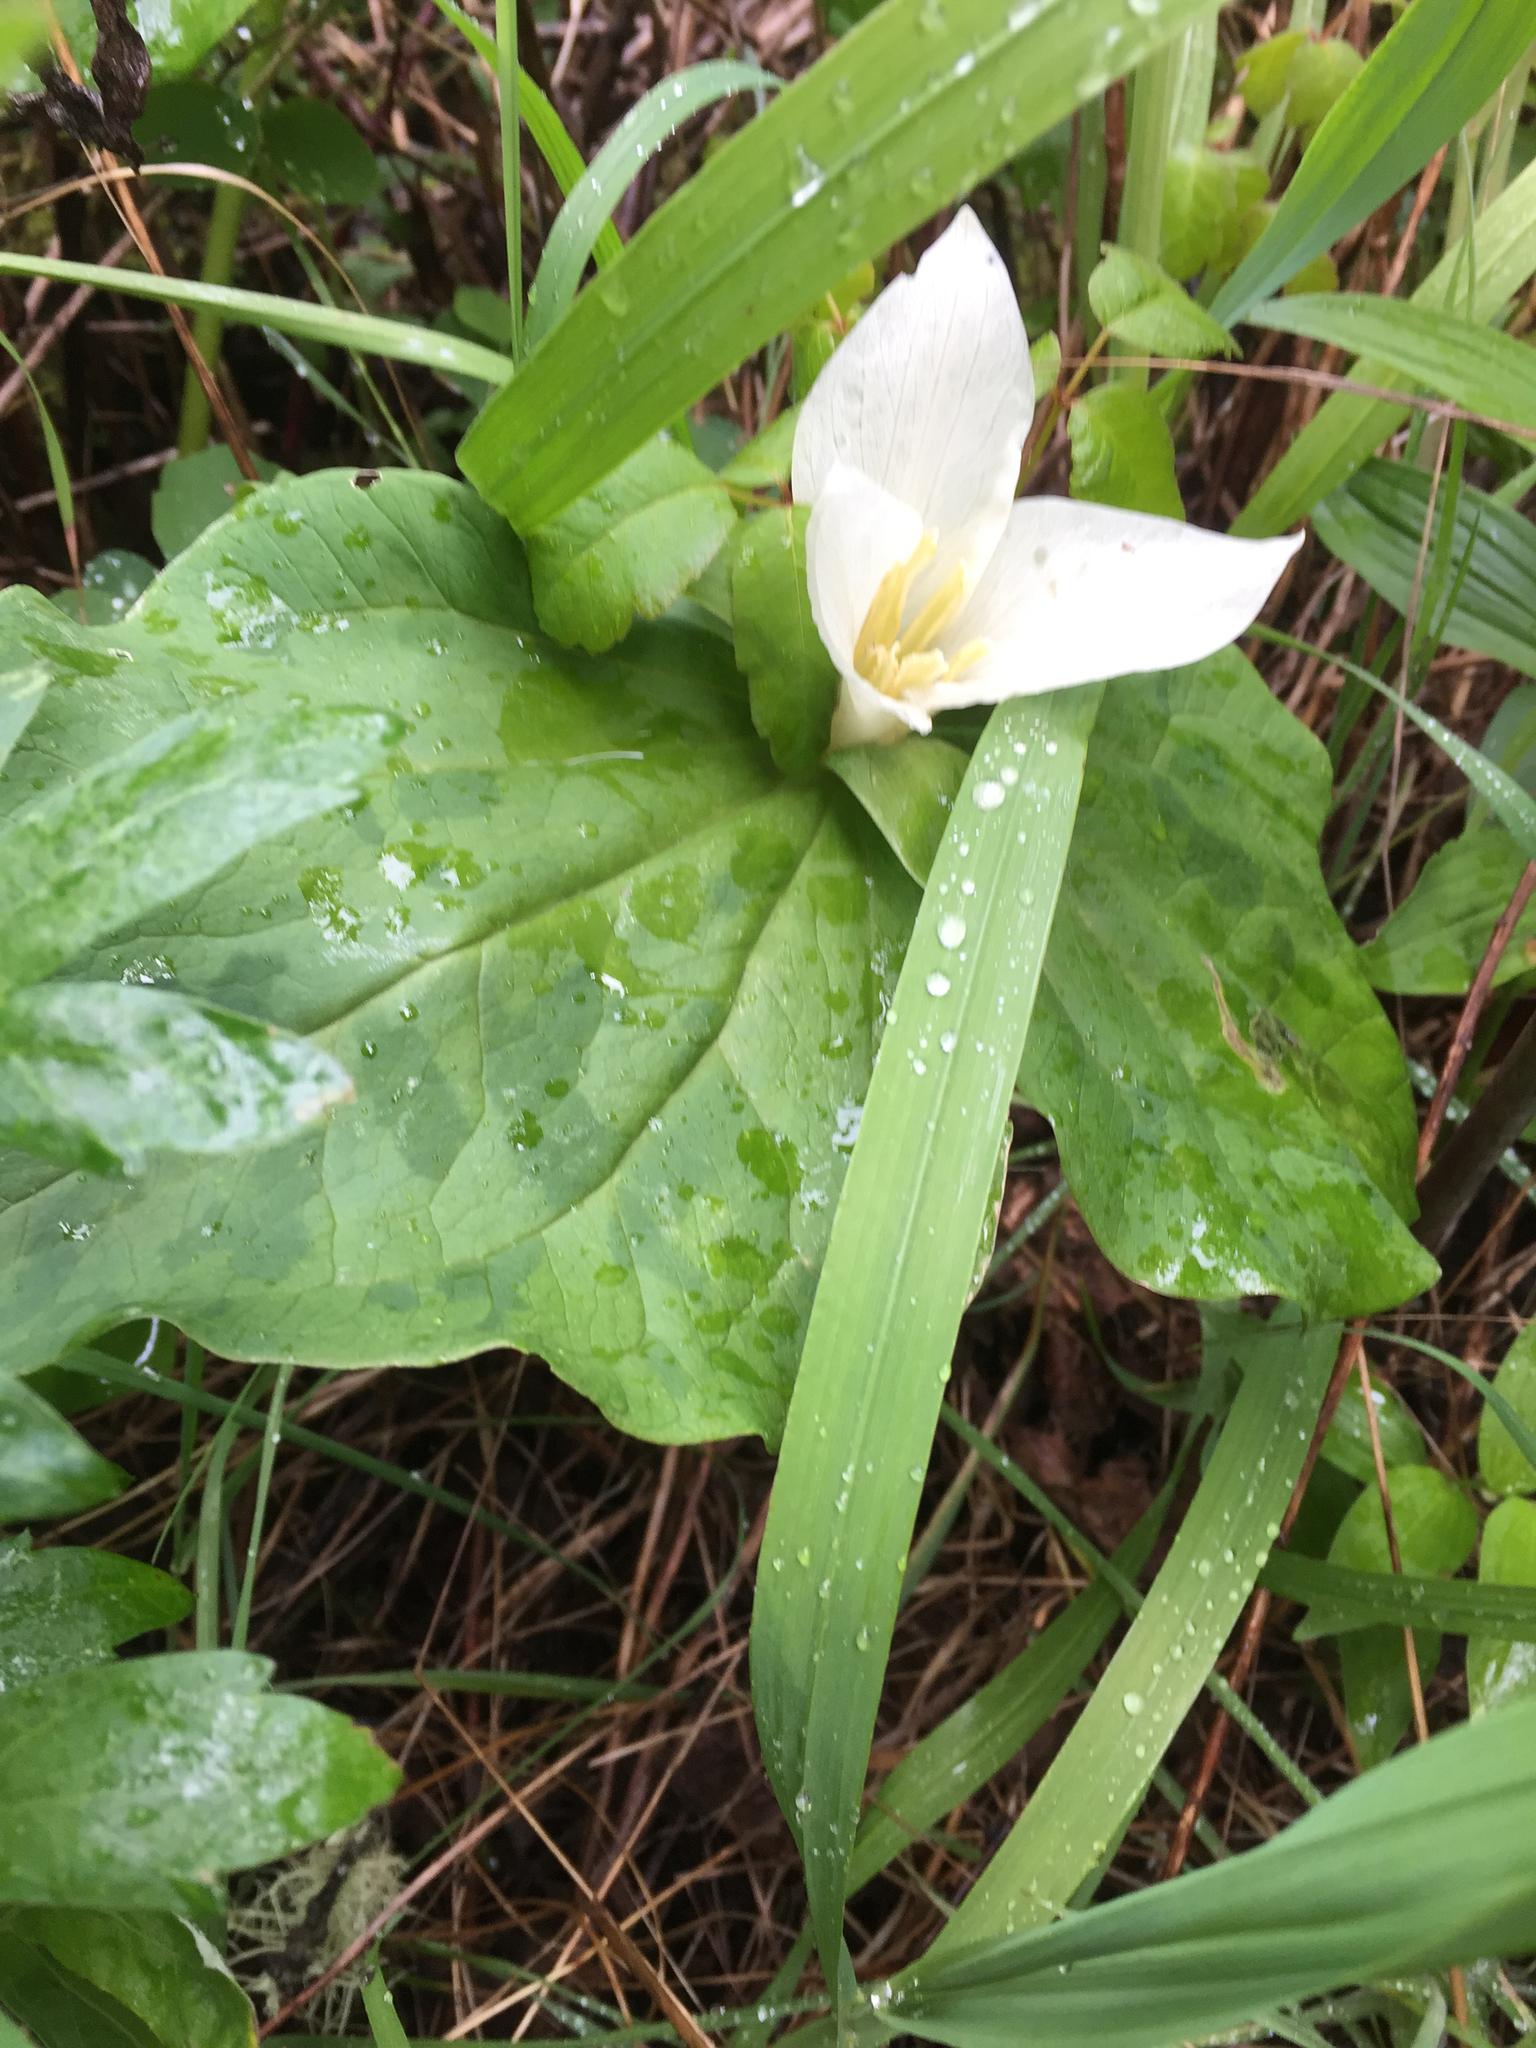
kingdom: Plantae
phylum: Tracheophyta
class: Liliopsida
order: Liliales
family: Melanthiaceae
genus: Trillium
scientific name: Trillium albidum
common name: Freeman's trillium
